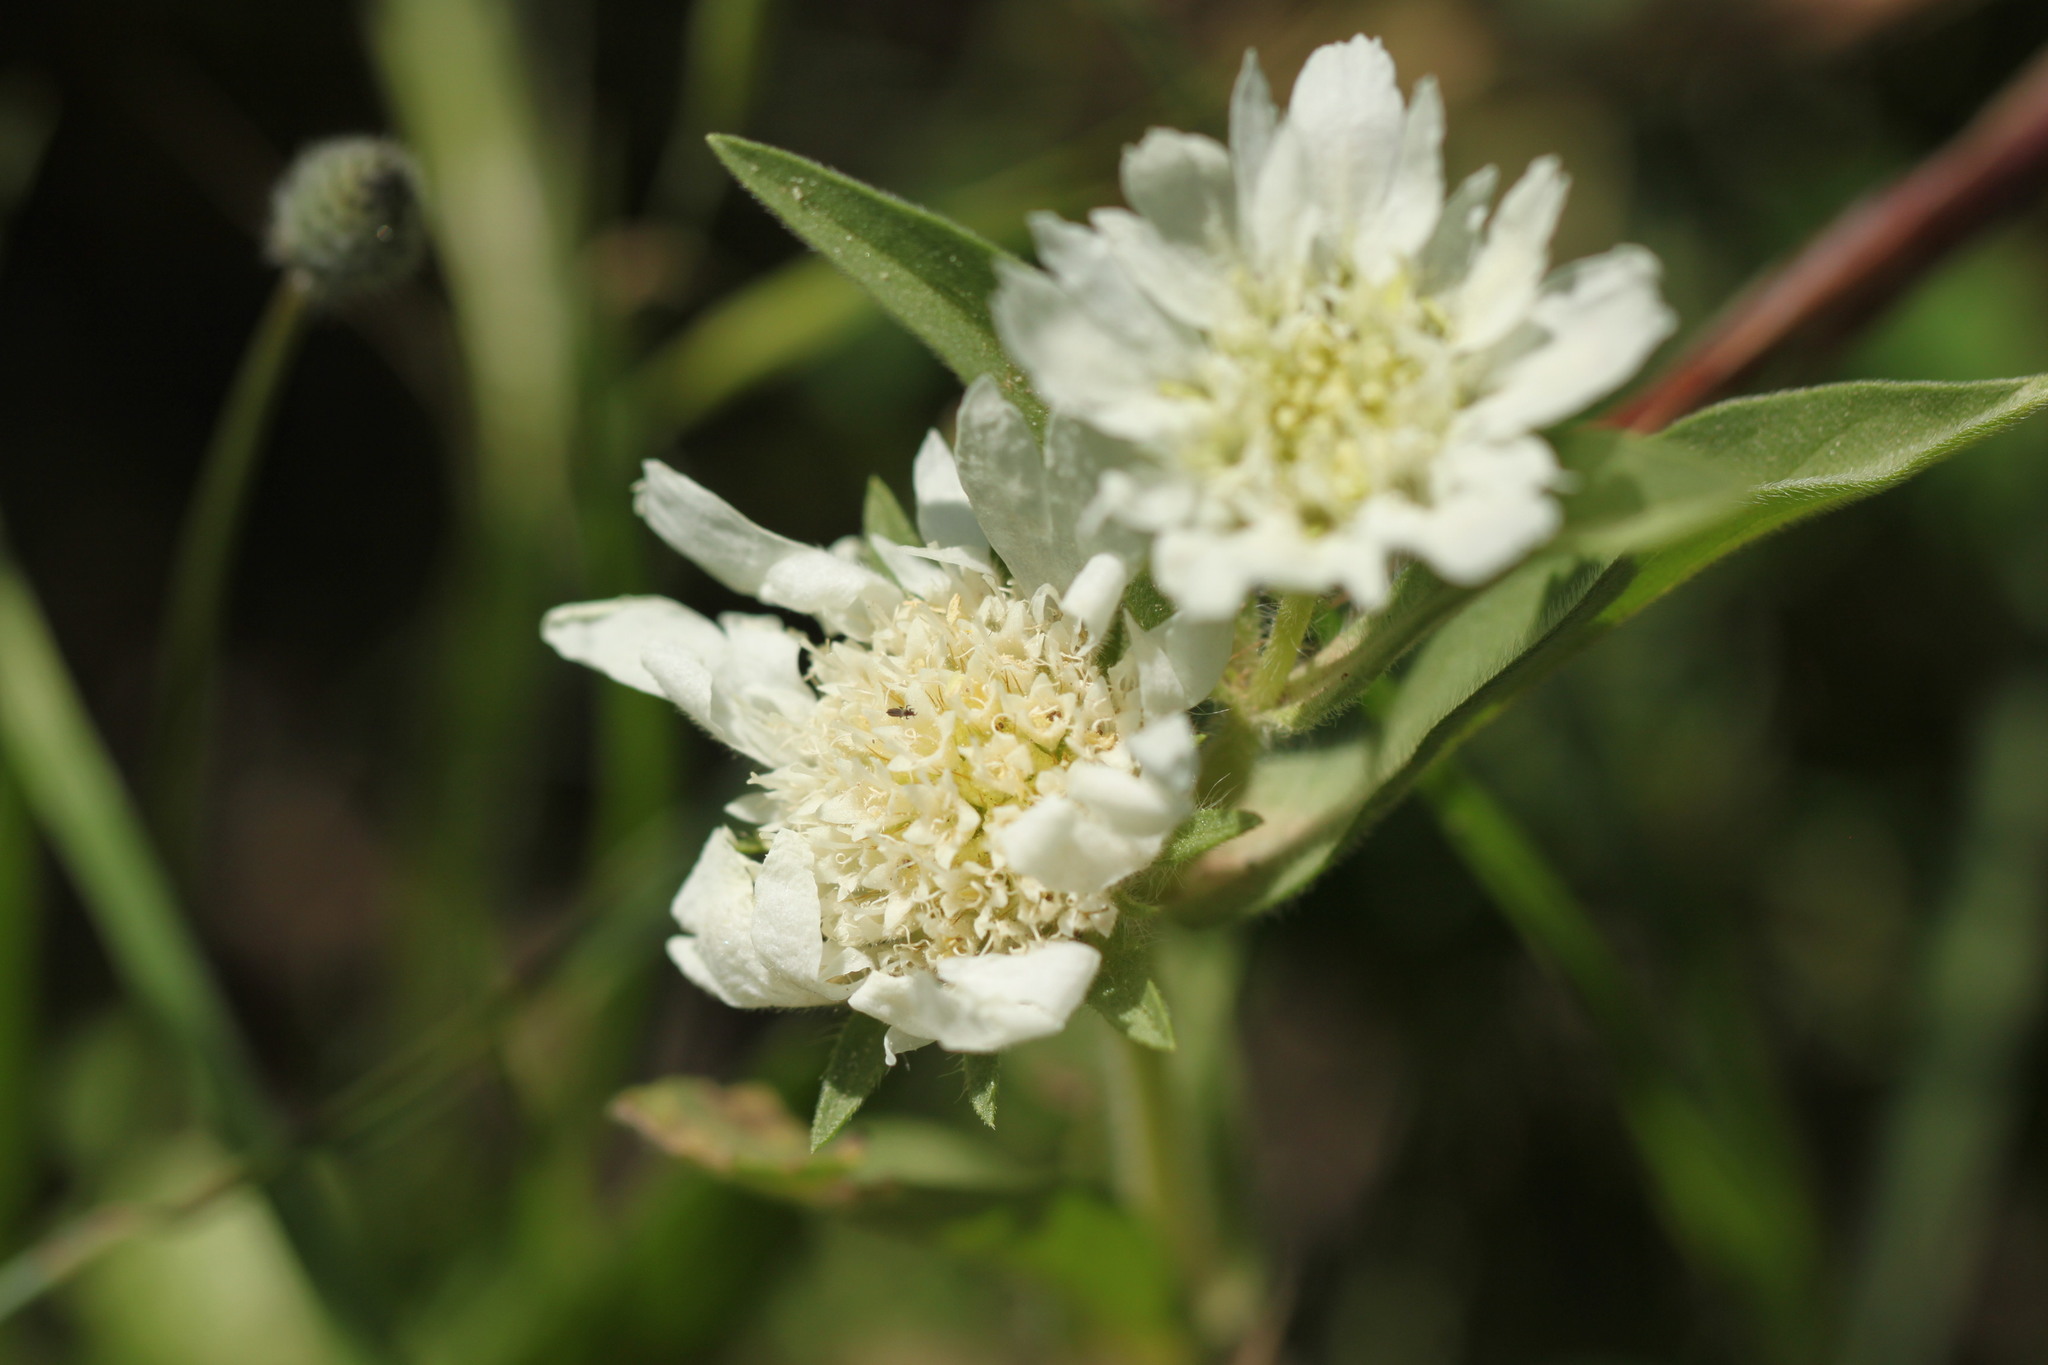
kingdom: Plantae
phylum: Tracheophyta
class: Magnoliopsida
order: Dipsacales
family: Caprifoliaceae
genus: Lomelosia
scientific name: Lomelosia prolifera
